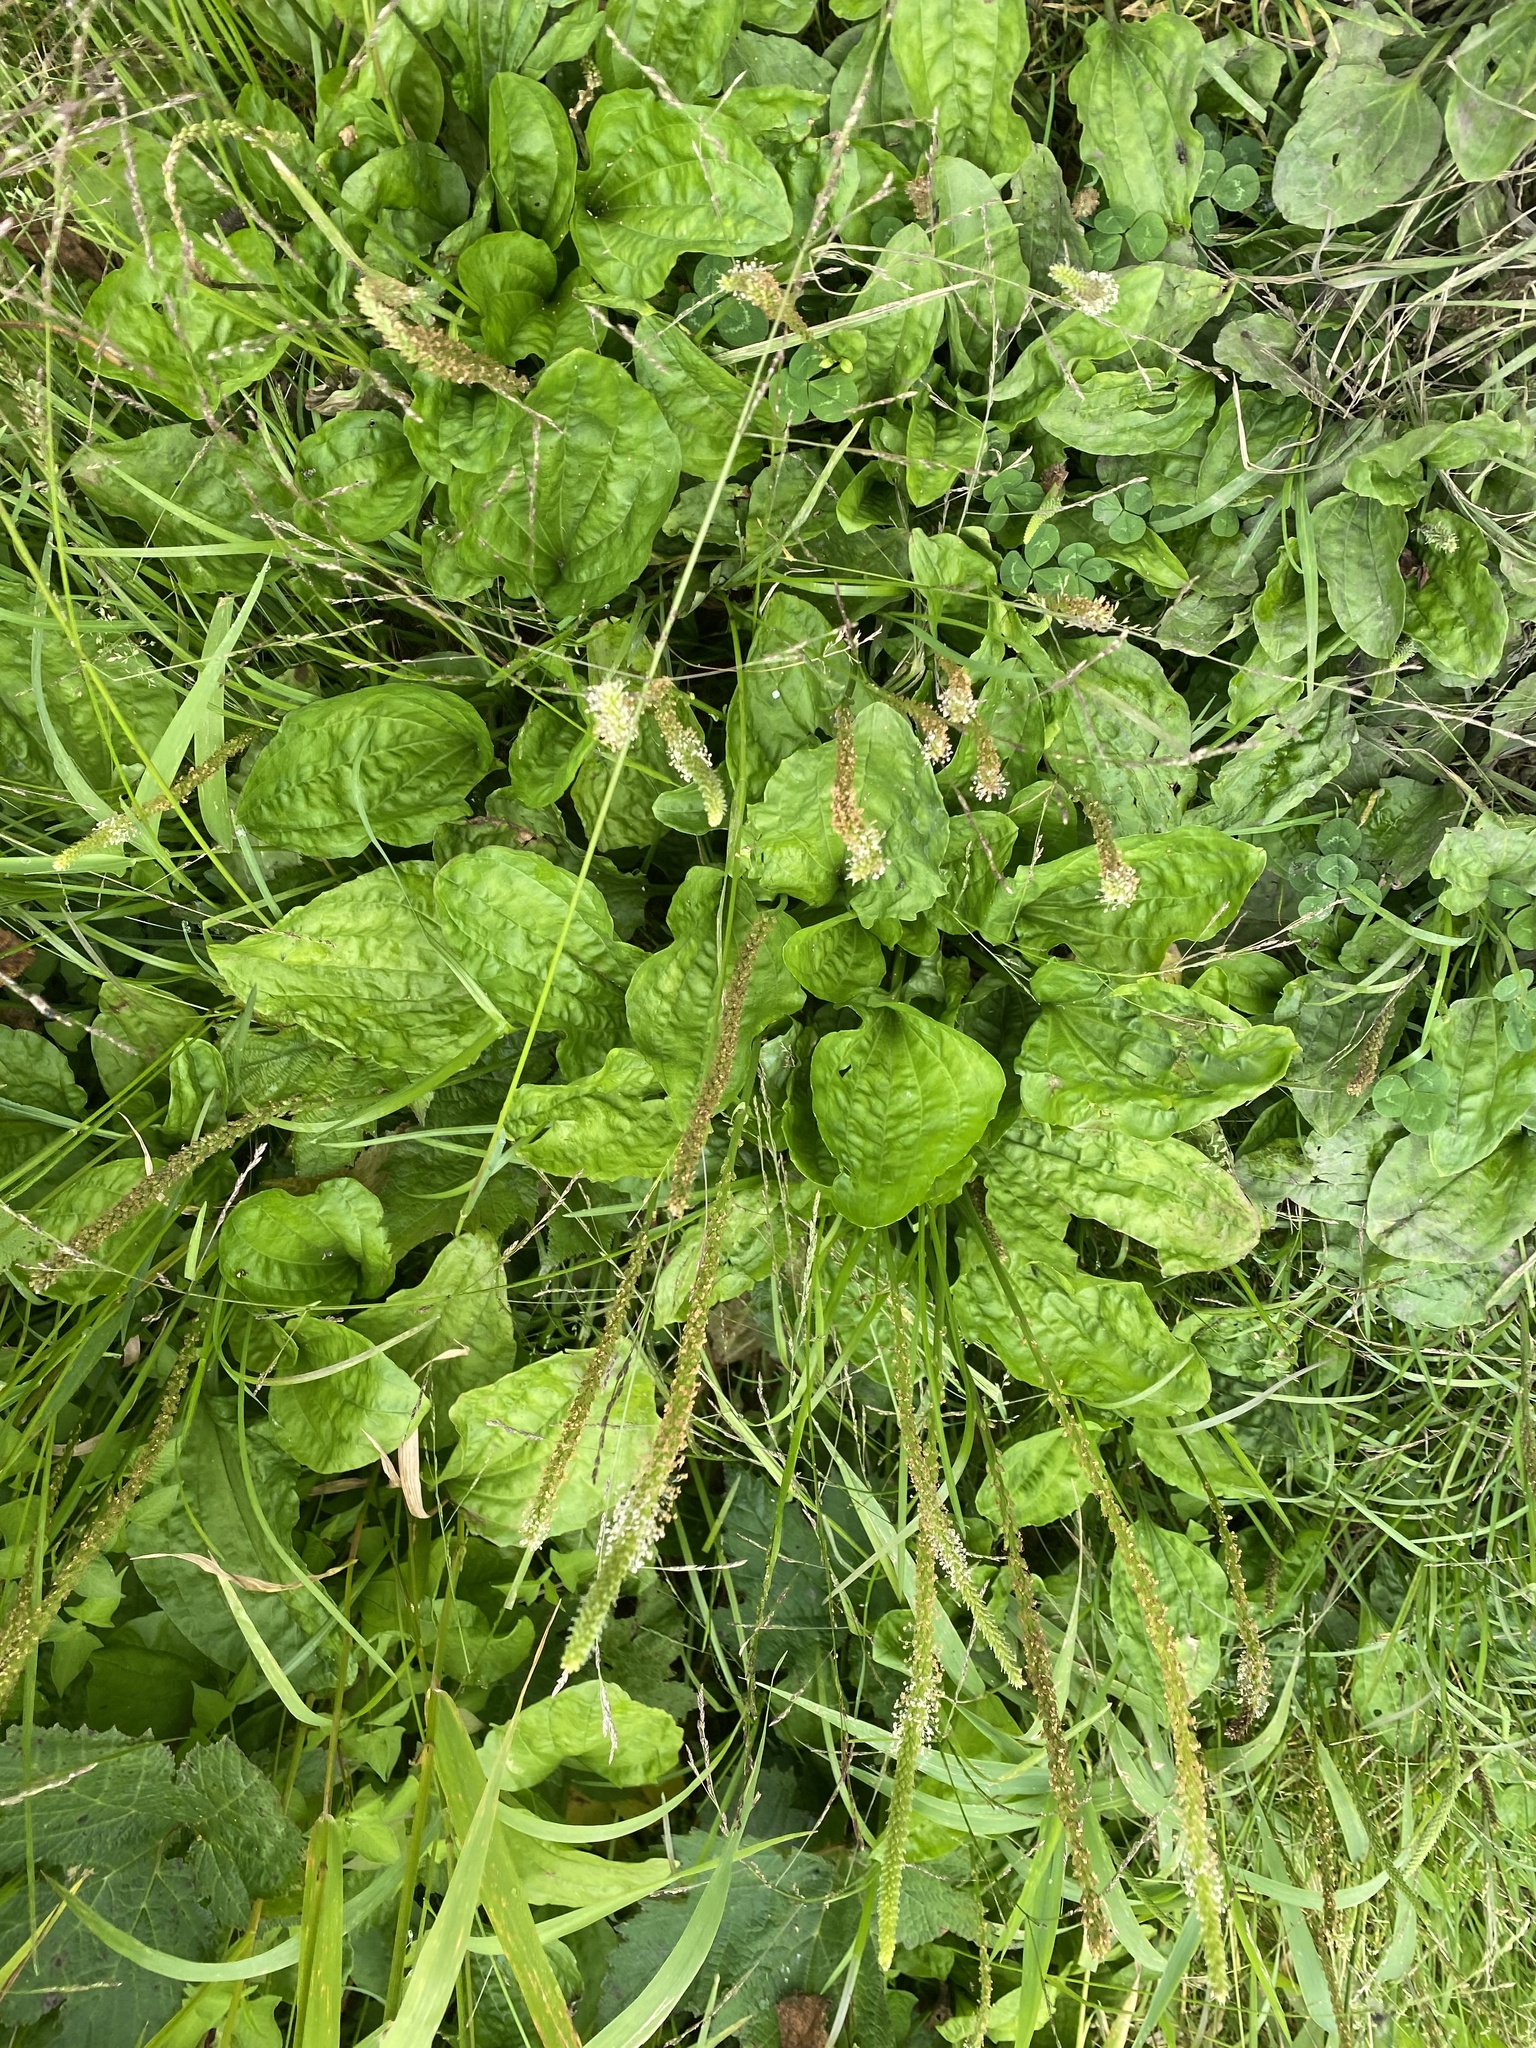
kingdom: Plantae
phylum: Tracheophyta
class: Magnoliopsida
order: Lamiales
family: Plantaginaceae
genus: Plantago
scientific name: Plantago major
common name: Common plantain
